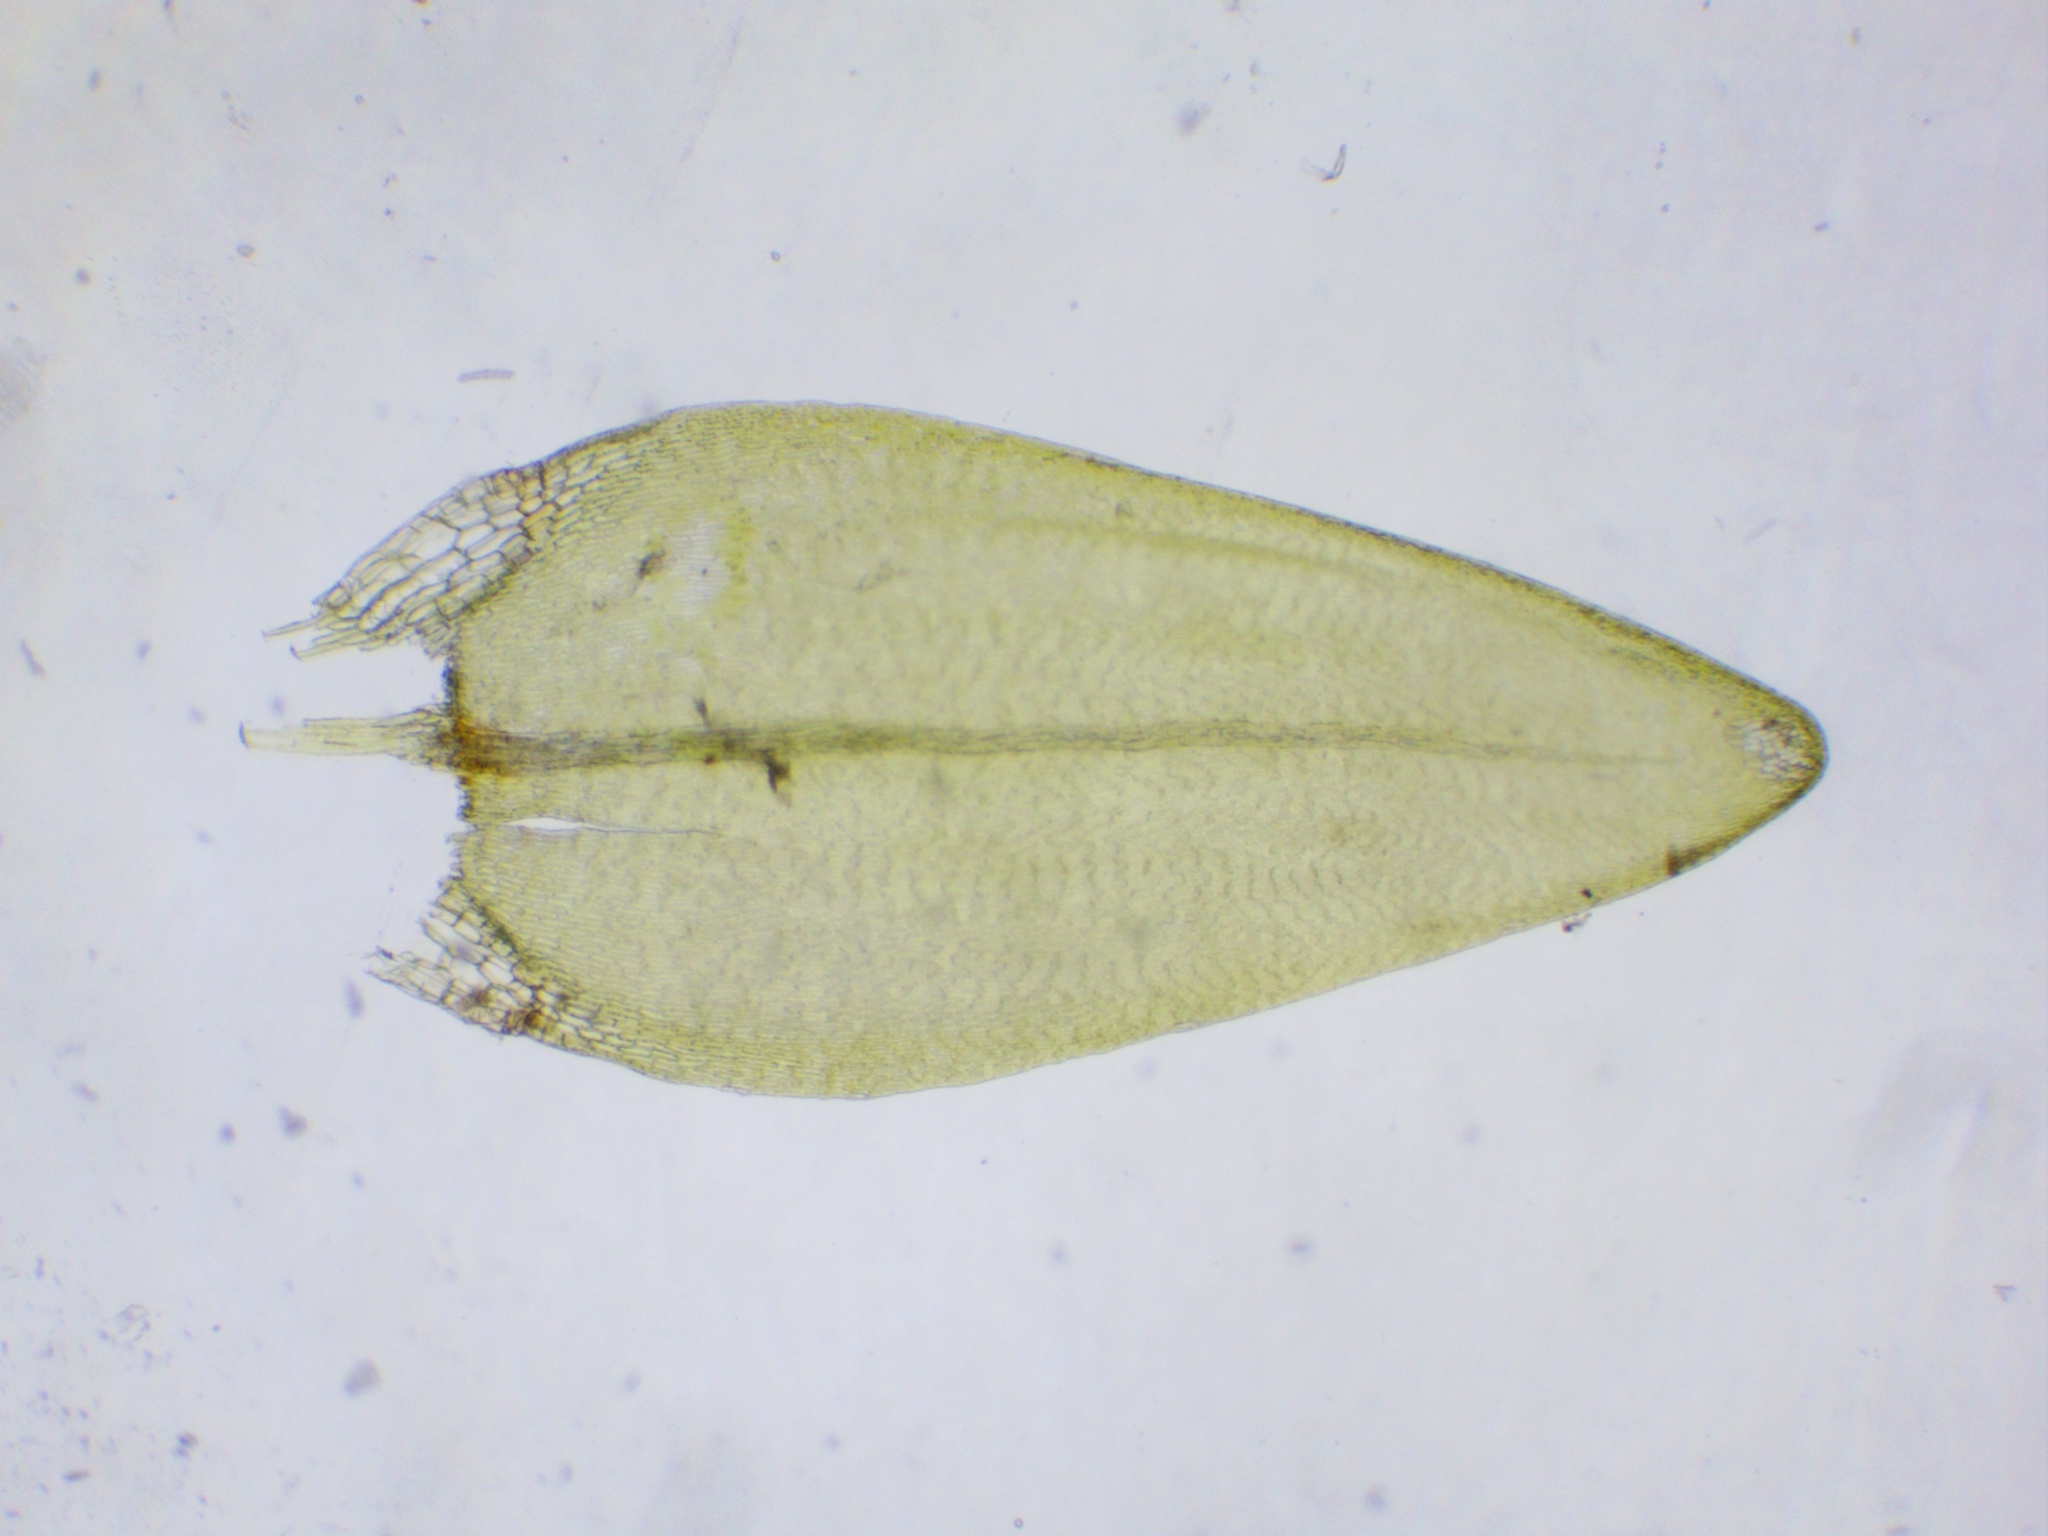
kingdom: Plantae
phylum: Bryophyta
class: Bryopsida
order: Hypnales
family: Calliergonaceae
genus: Straminergon
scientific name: Straminergon stramineum
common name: Straw moss
